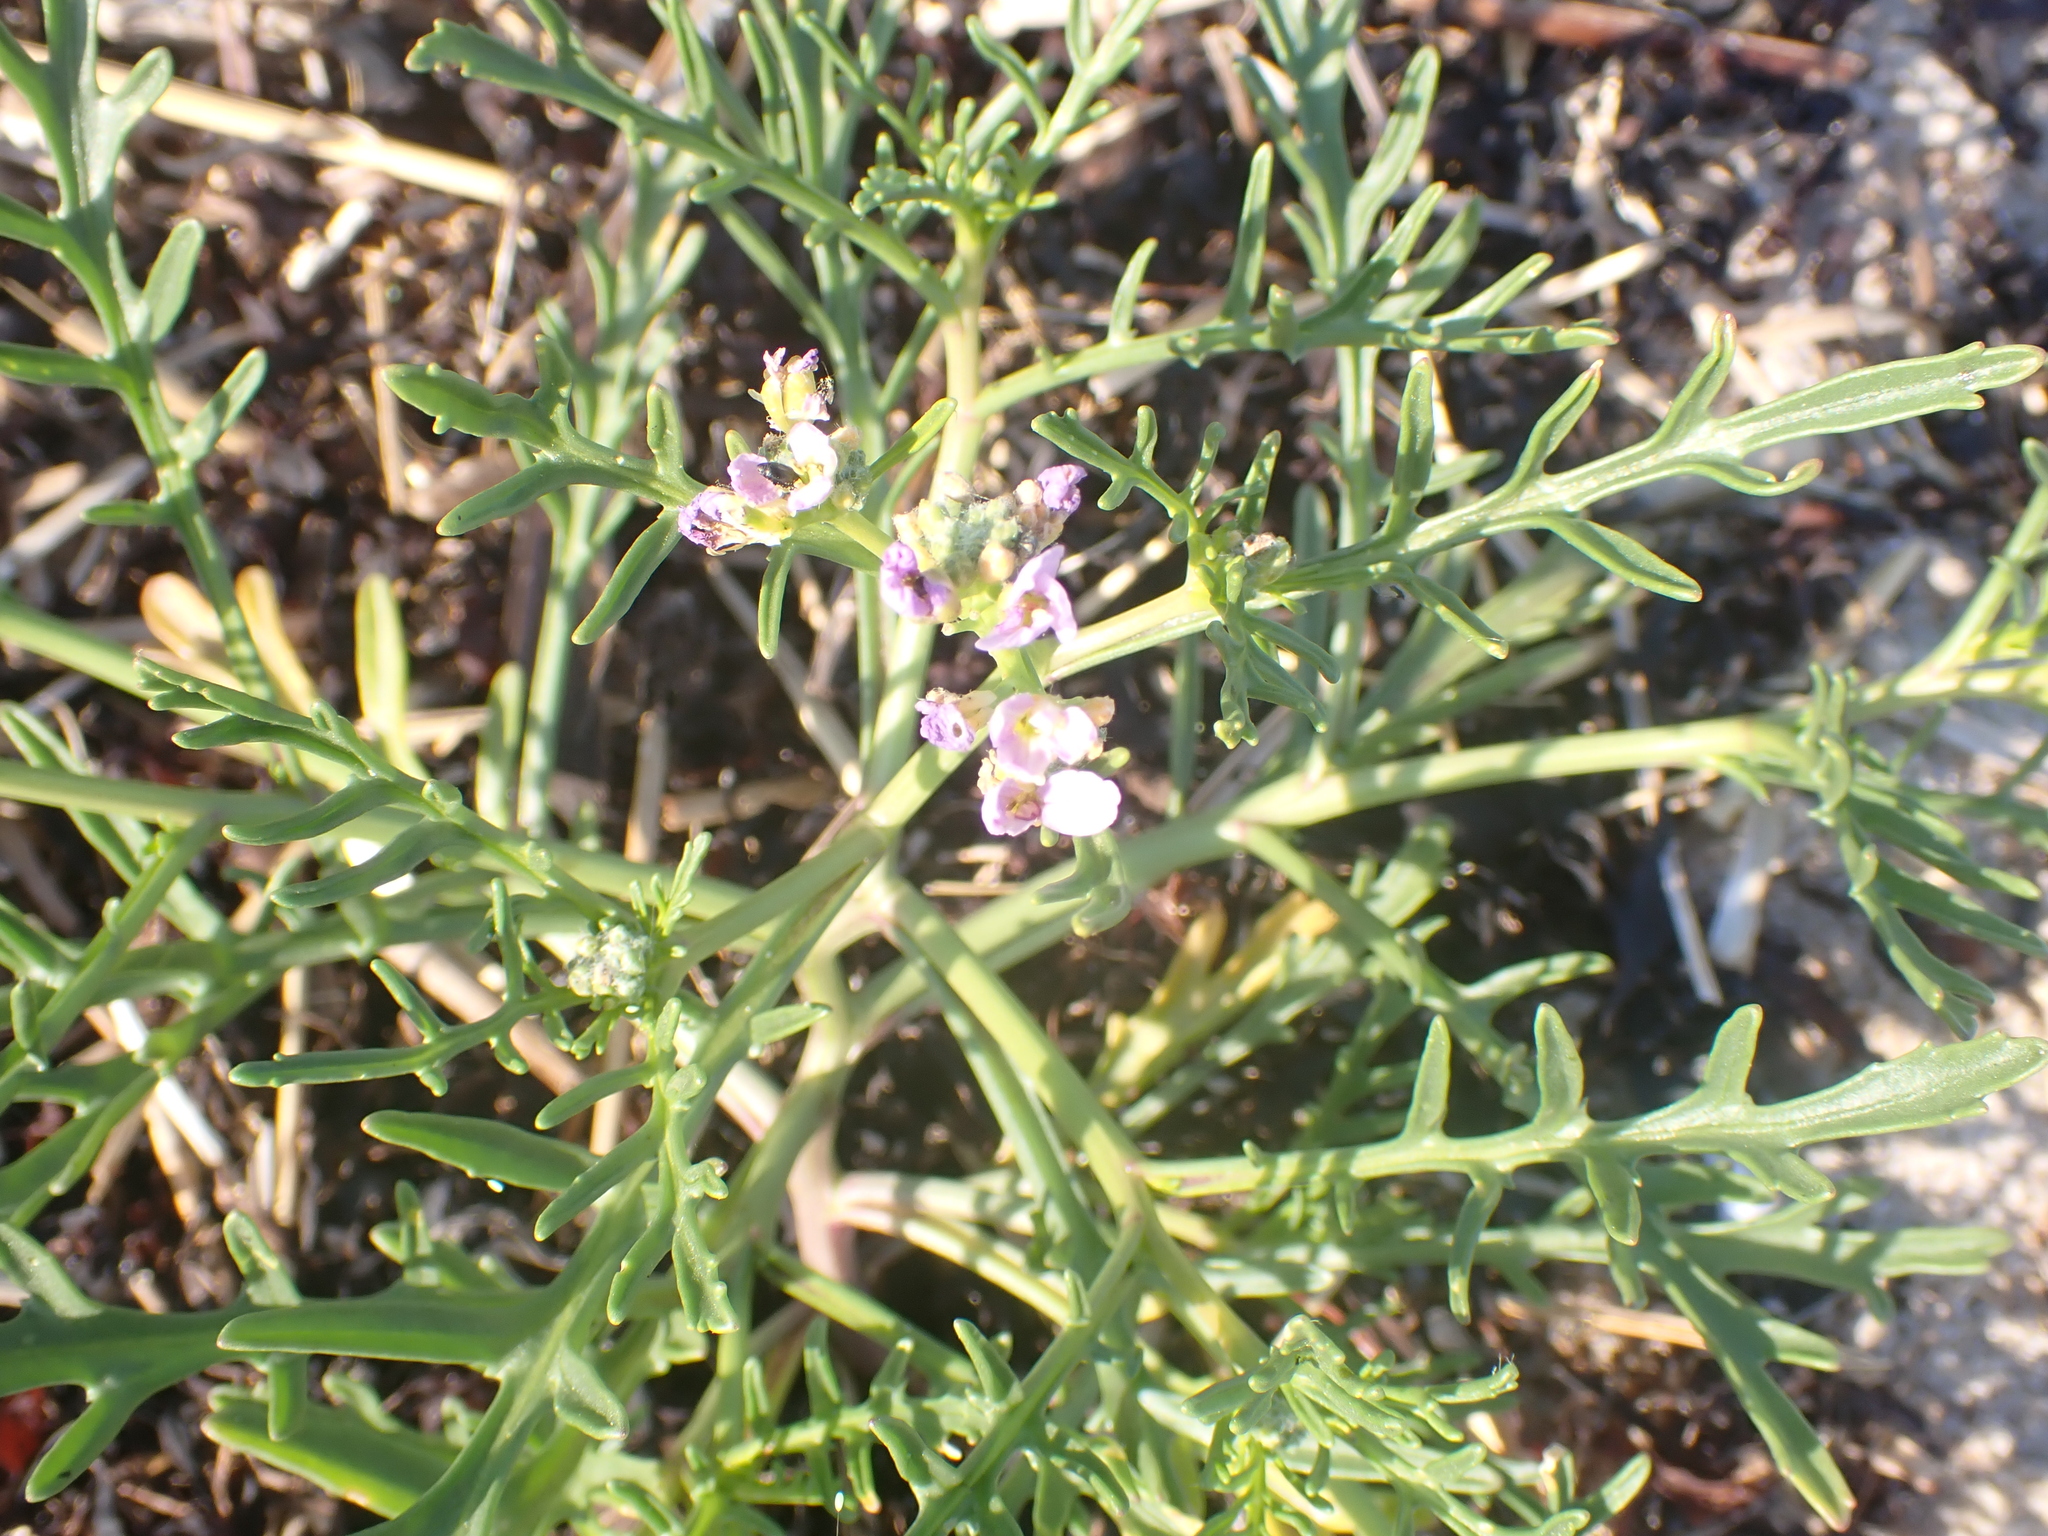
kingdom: Plantae
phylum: Tracheophyta
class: Magnoliopsida
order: Brassicales
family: Brassicaceae
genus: Cakile
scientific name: Cakile maritima
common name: Sea rocket
